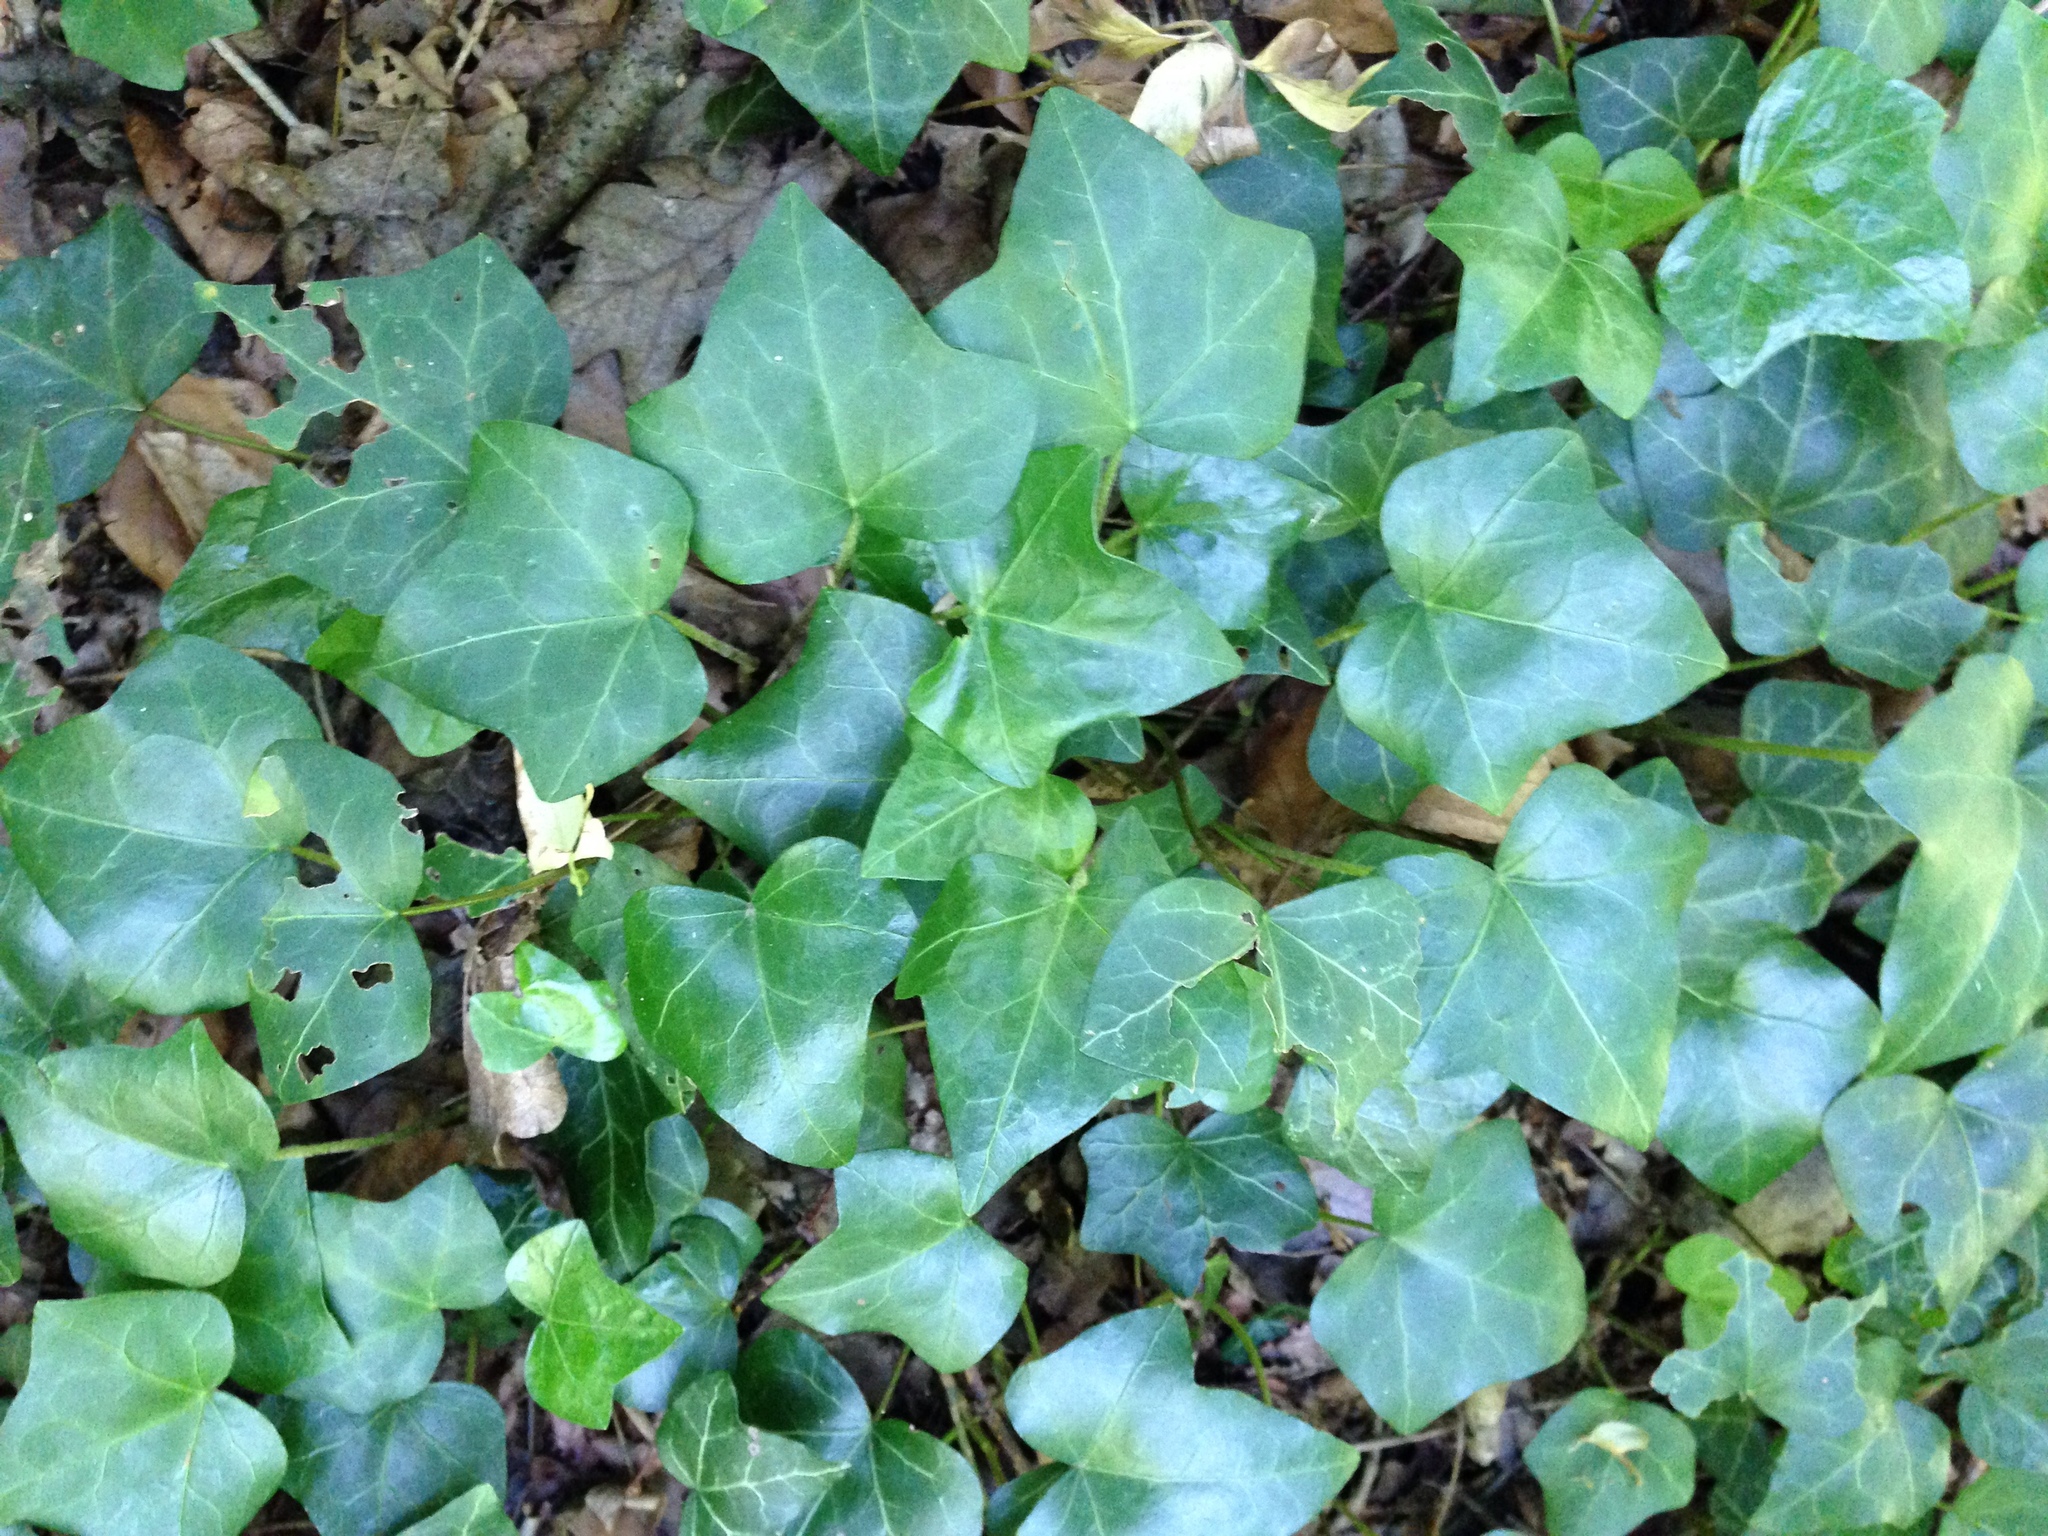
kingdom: Plantae
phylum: Tracheophyta
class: Magnoliopsida
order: Apiales
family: Araliaceae
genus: Hedera
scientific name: Hedera helix
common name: Ivy
